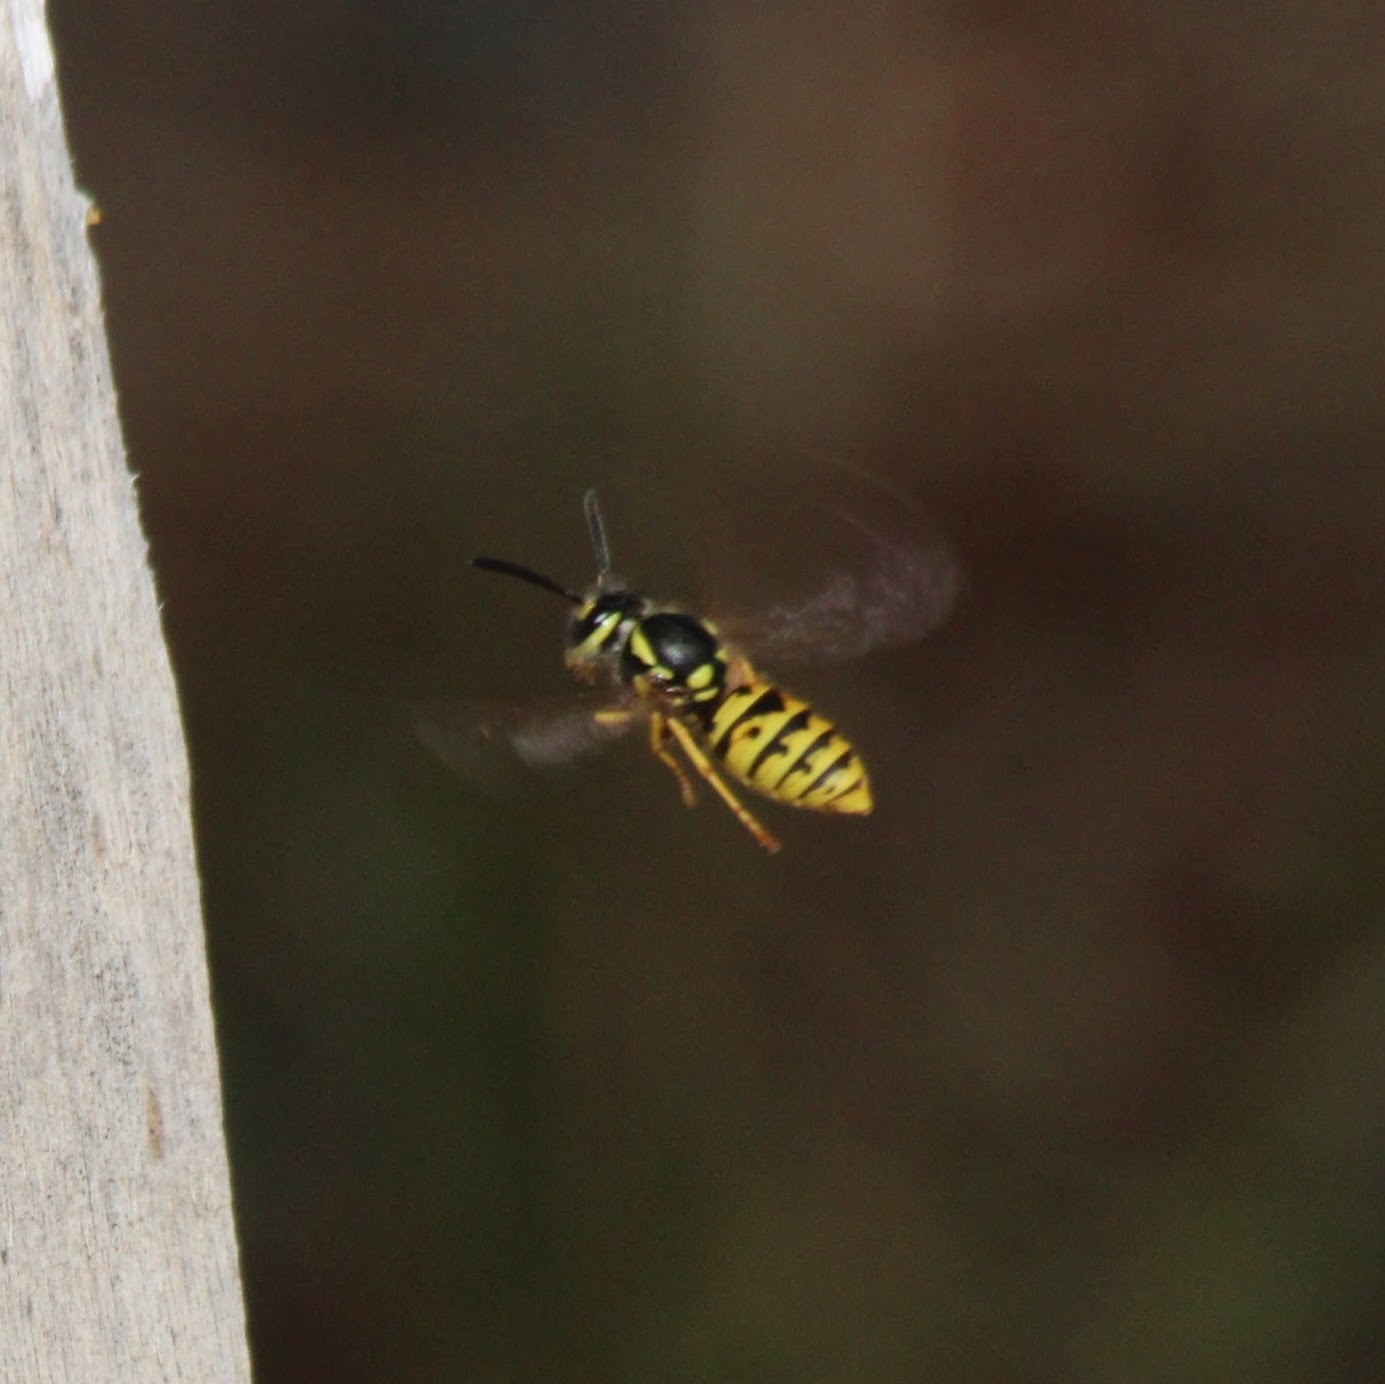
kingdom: Animalia
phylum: Arthropoda
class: Insecta
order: Hymenoptera
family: Vespidae
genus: Vespula
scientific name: Vespula germanica
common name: German wasp
